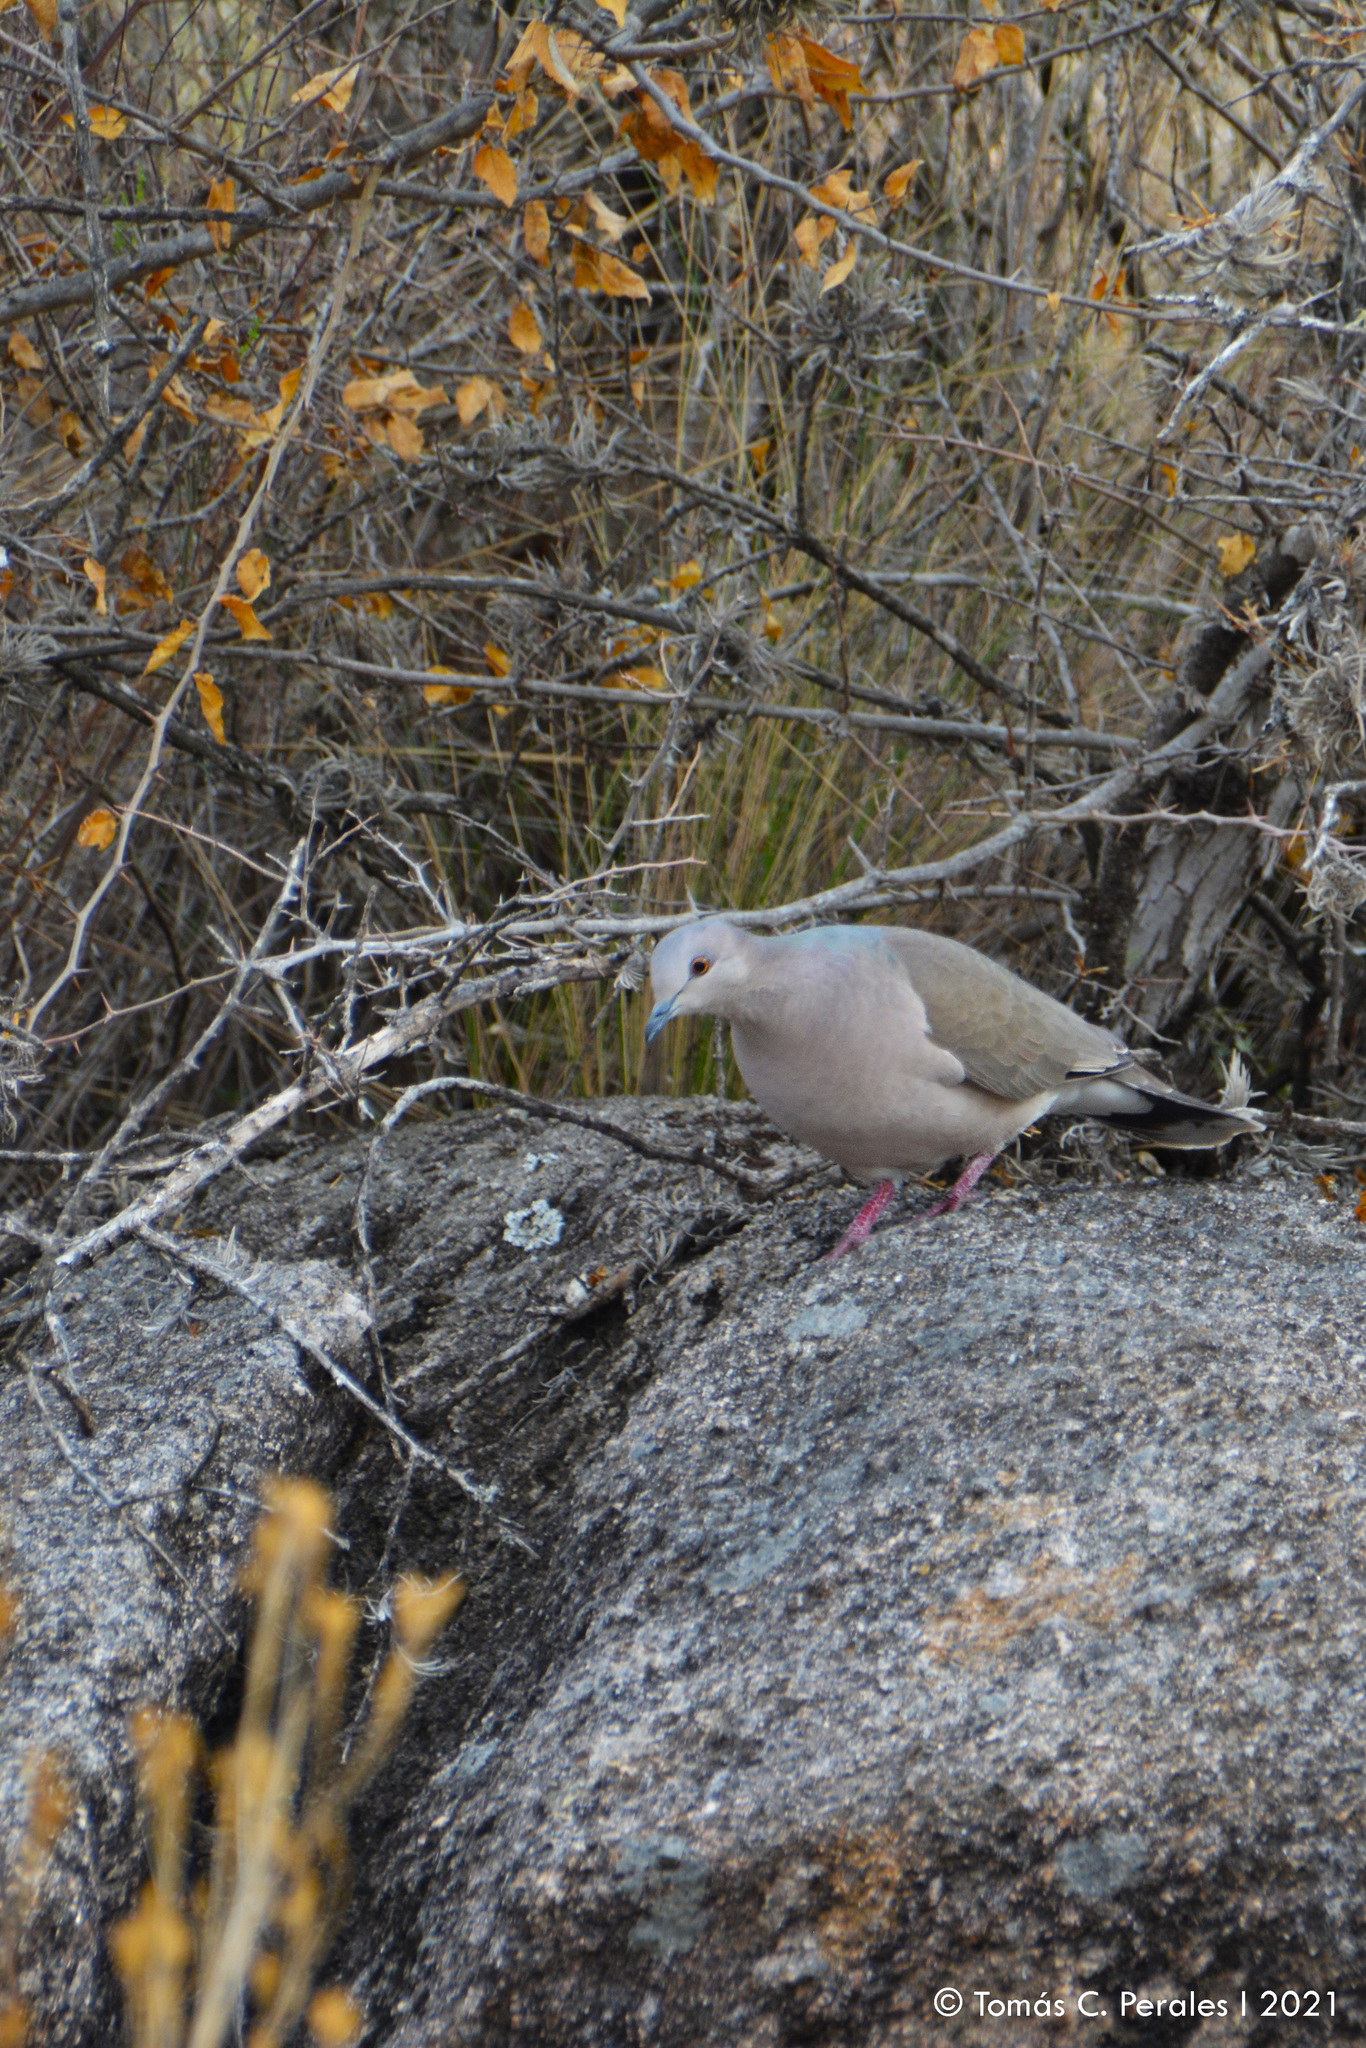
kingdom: Animalia
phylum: Chordata
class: Aves
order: Columbiformes
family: Columbidae
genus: Leptotila
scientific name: Leptotila verreauxi
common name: White-tipped dove
